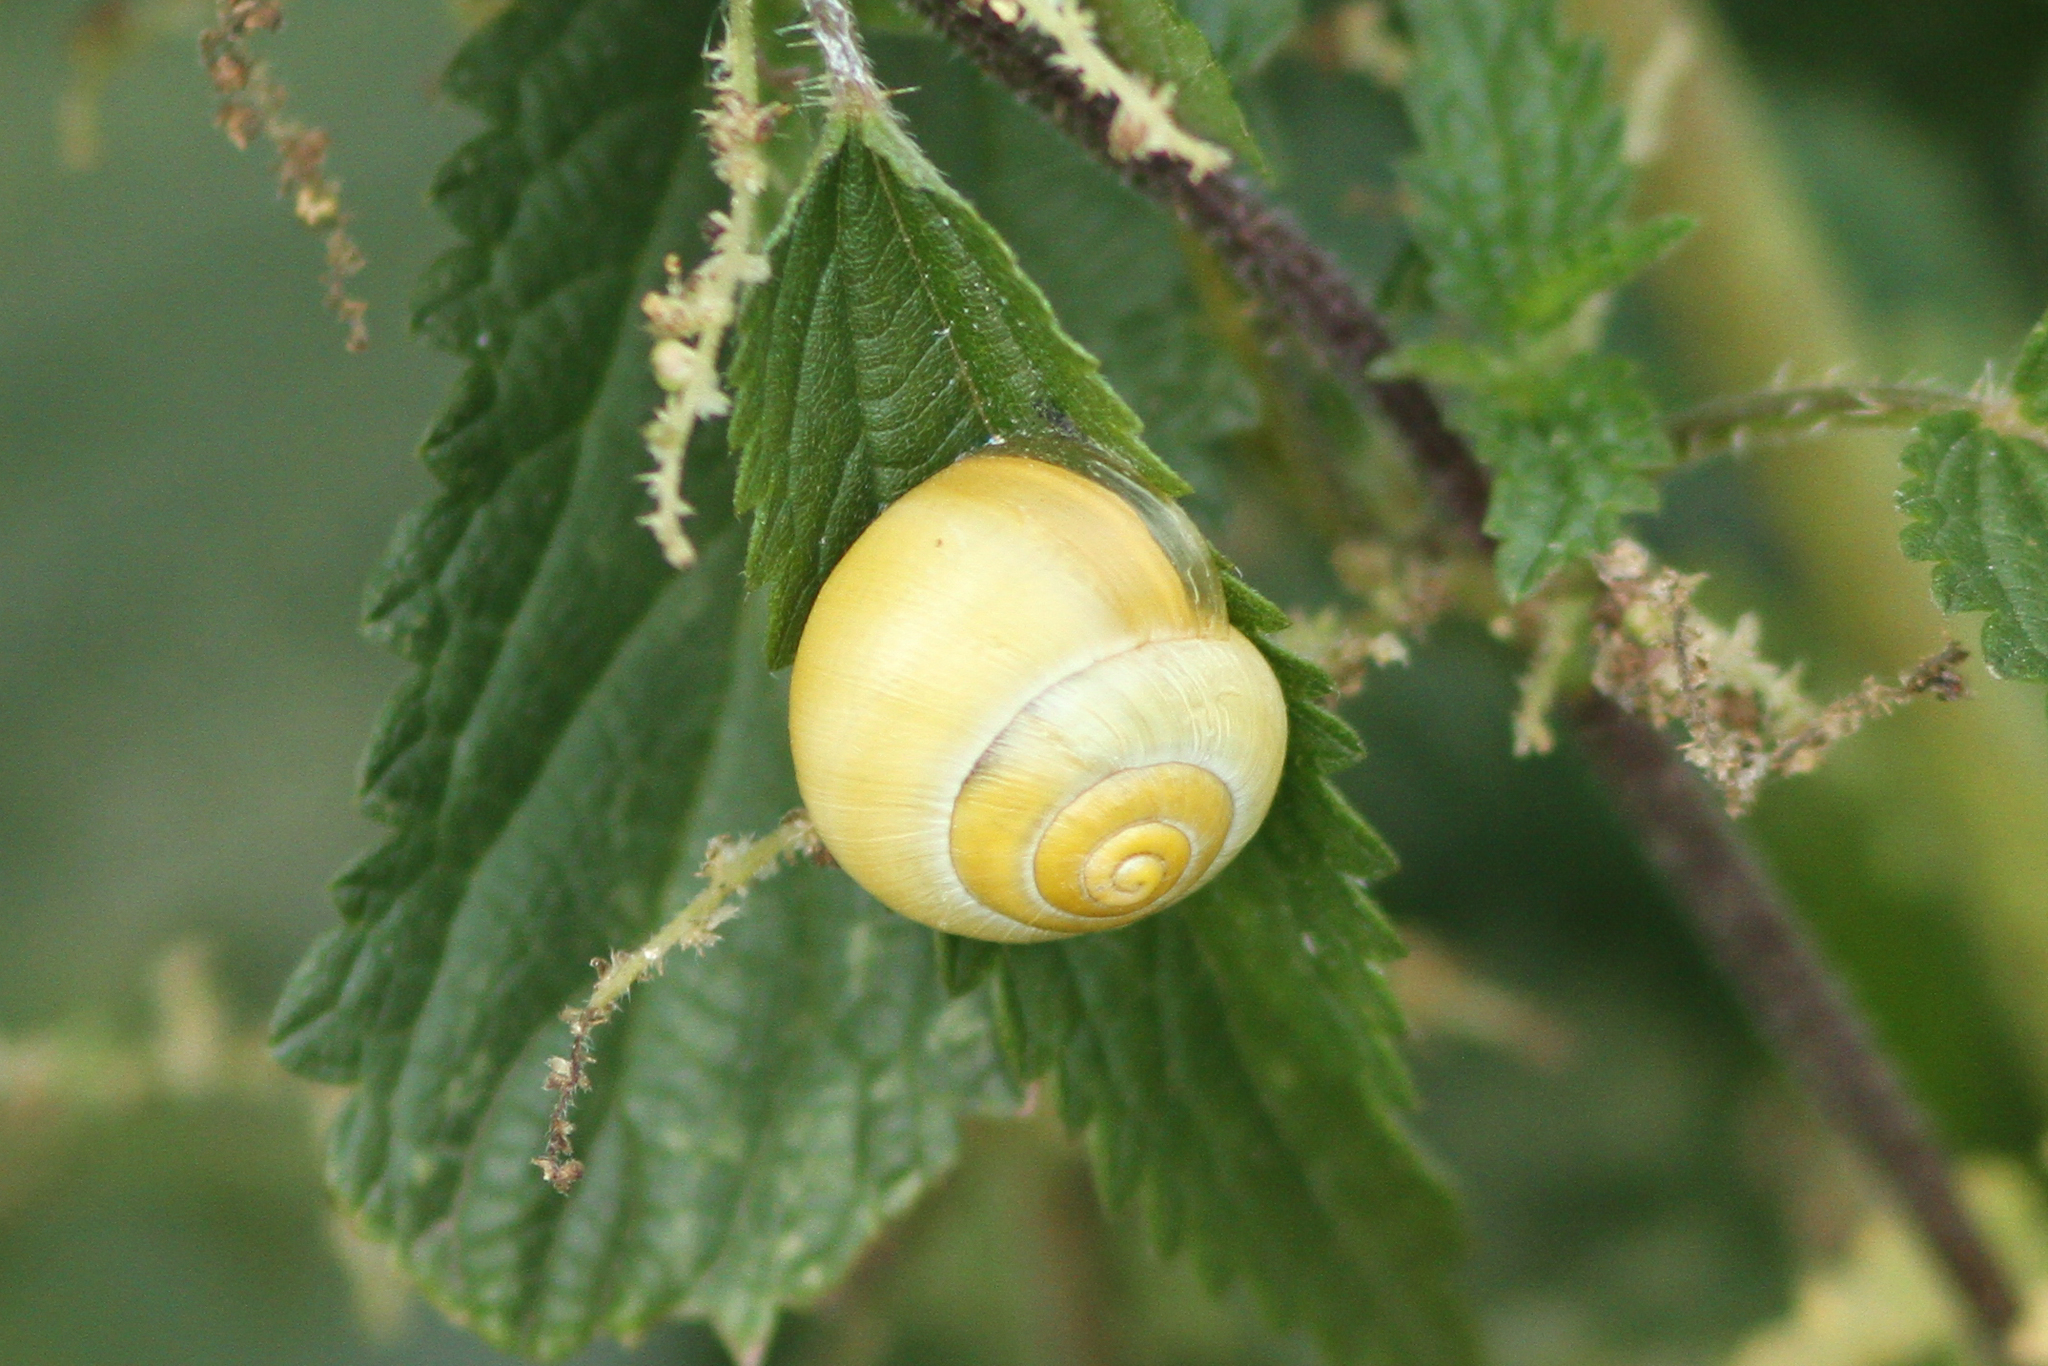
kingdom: Animalia
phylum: Mollusca
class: Gastropoda
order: Stylommatophora
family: Helicidae
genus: Cepaea
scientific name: Cepaea
